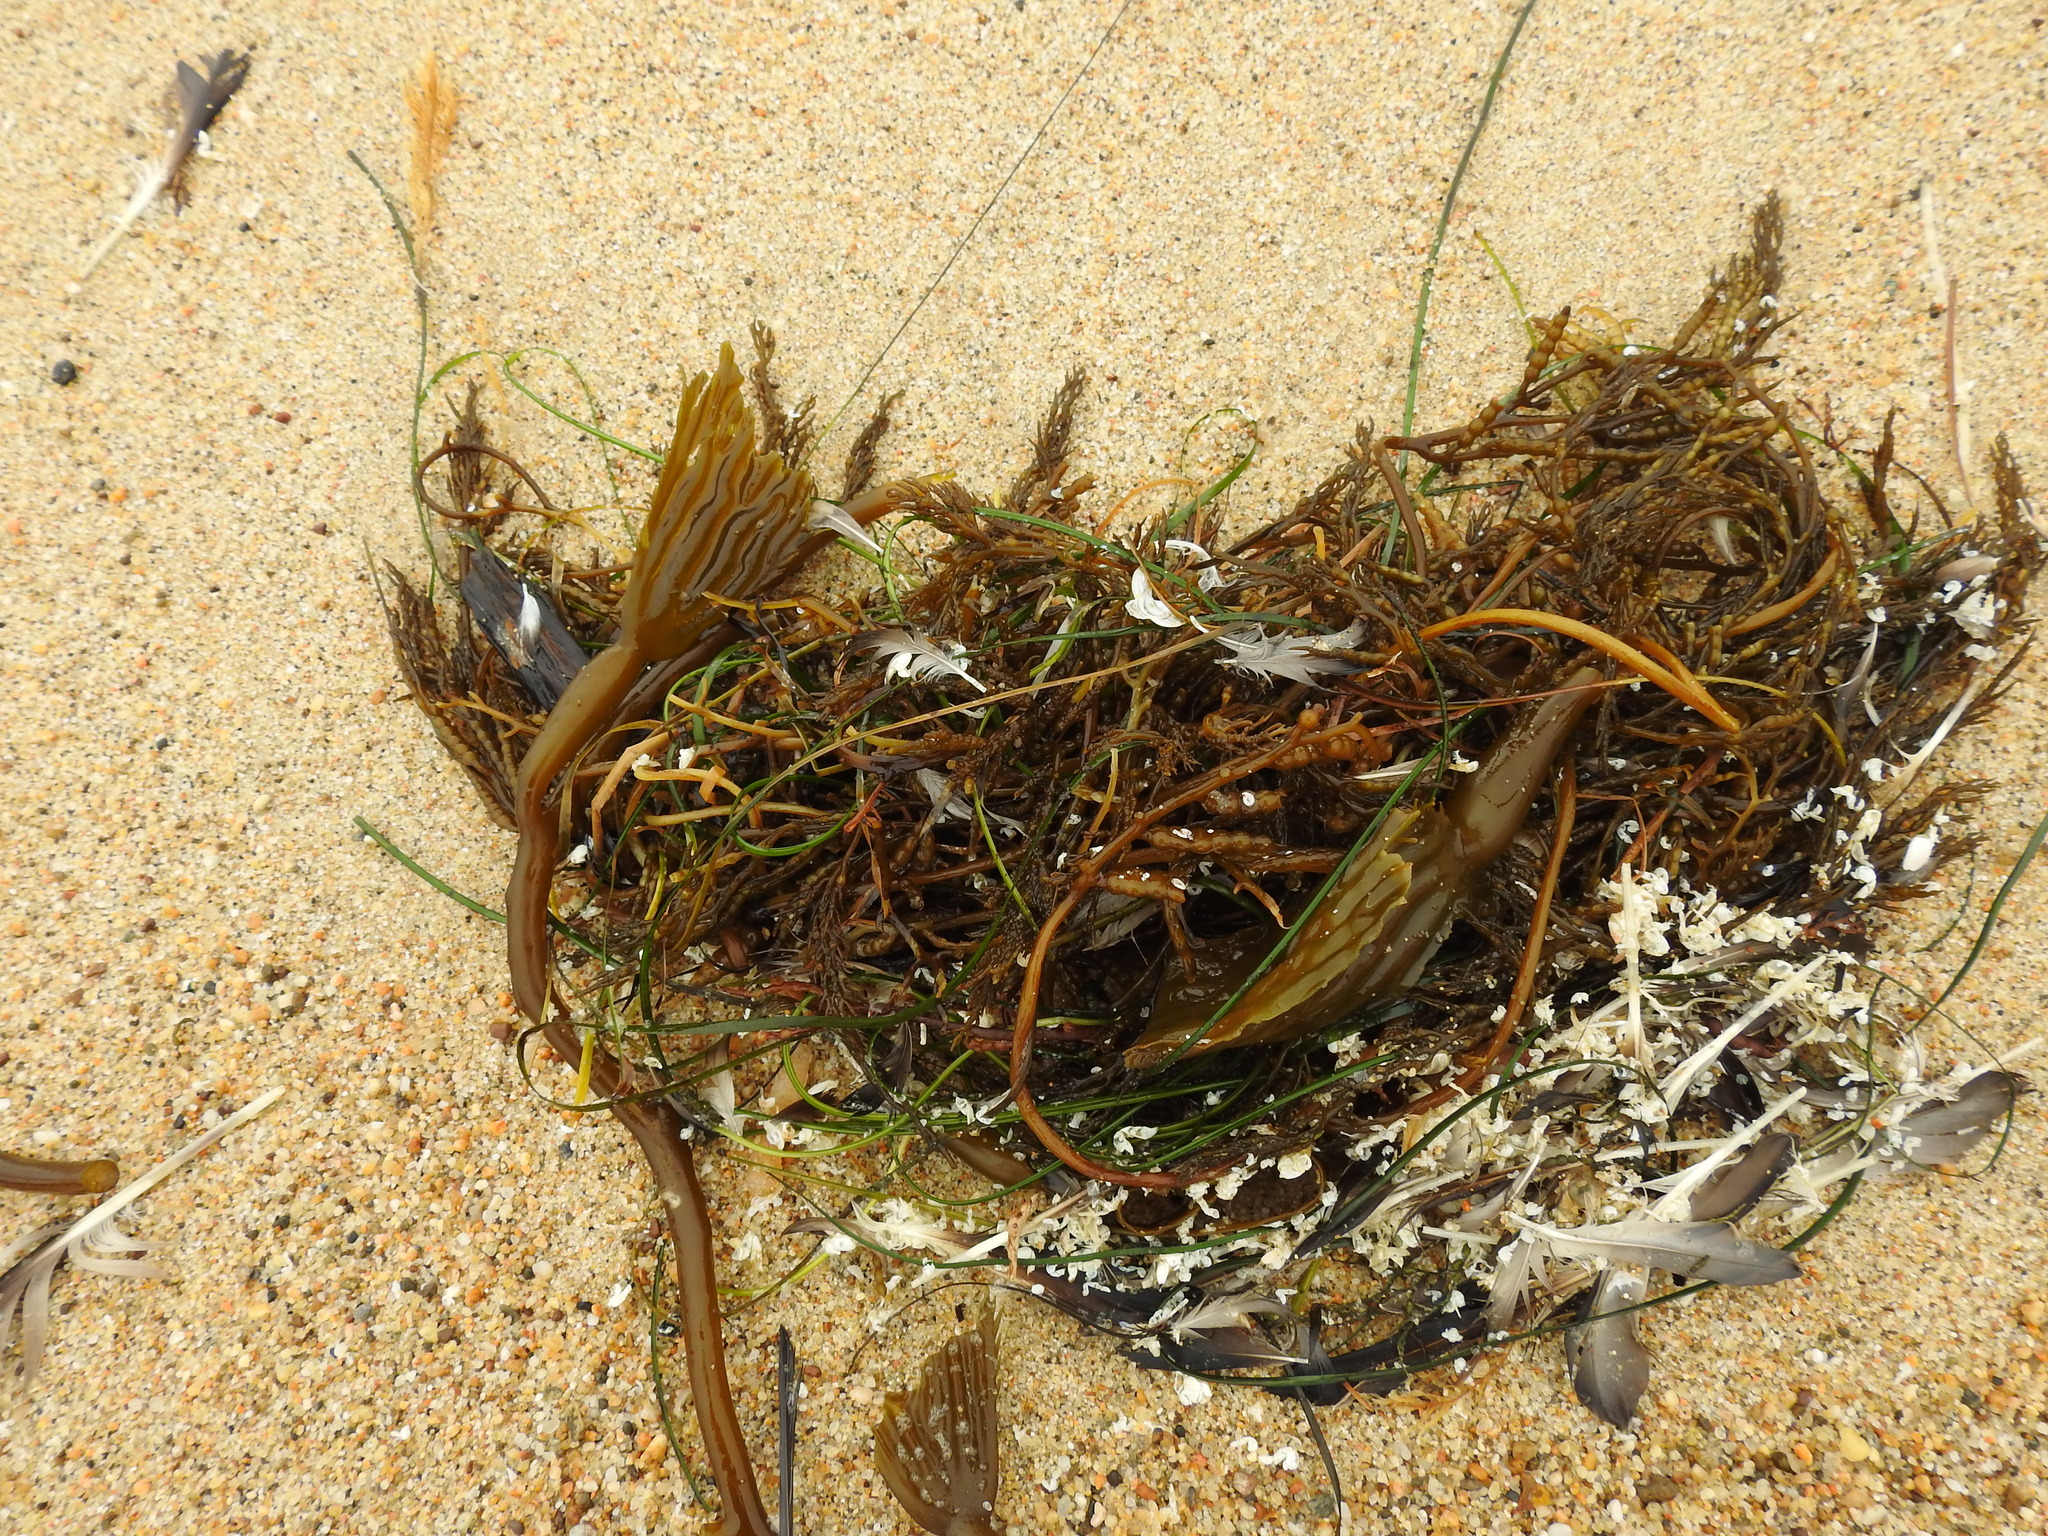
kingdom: Chromista
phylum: Ochrophyta
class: Phaeophyceae
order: Fucales
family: Sargassaceae
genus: Stephanocystis
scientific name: Stephanocystis
